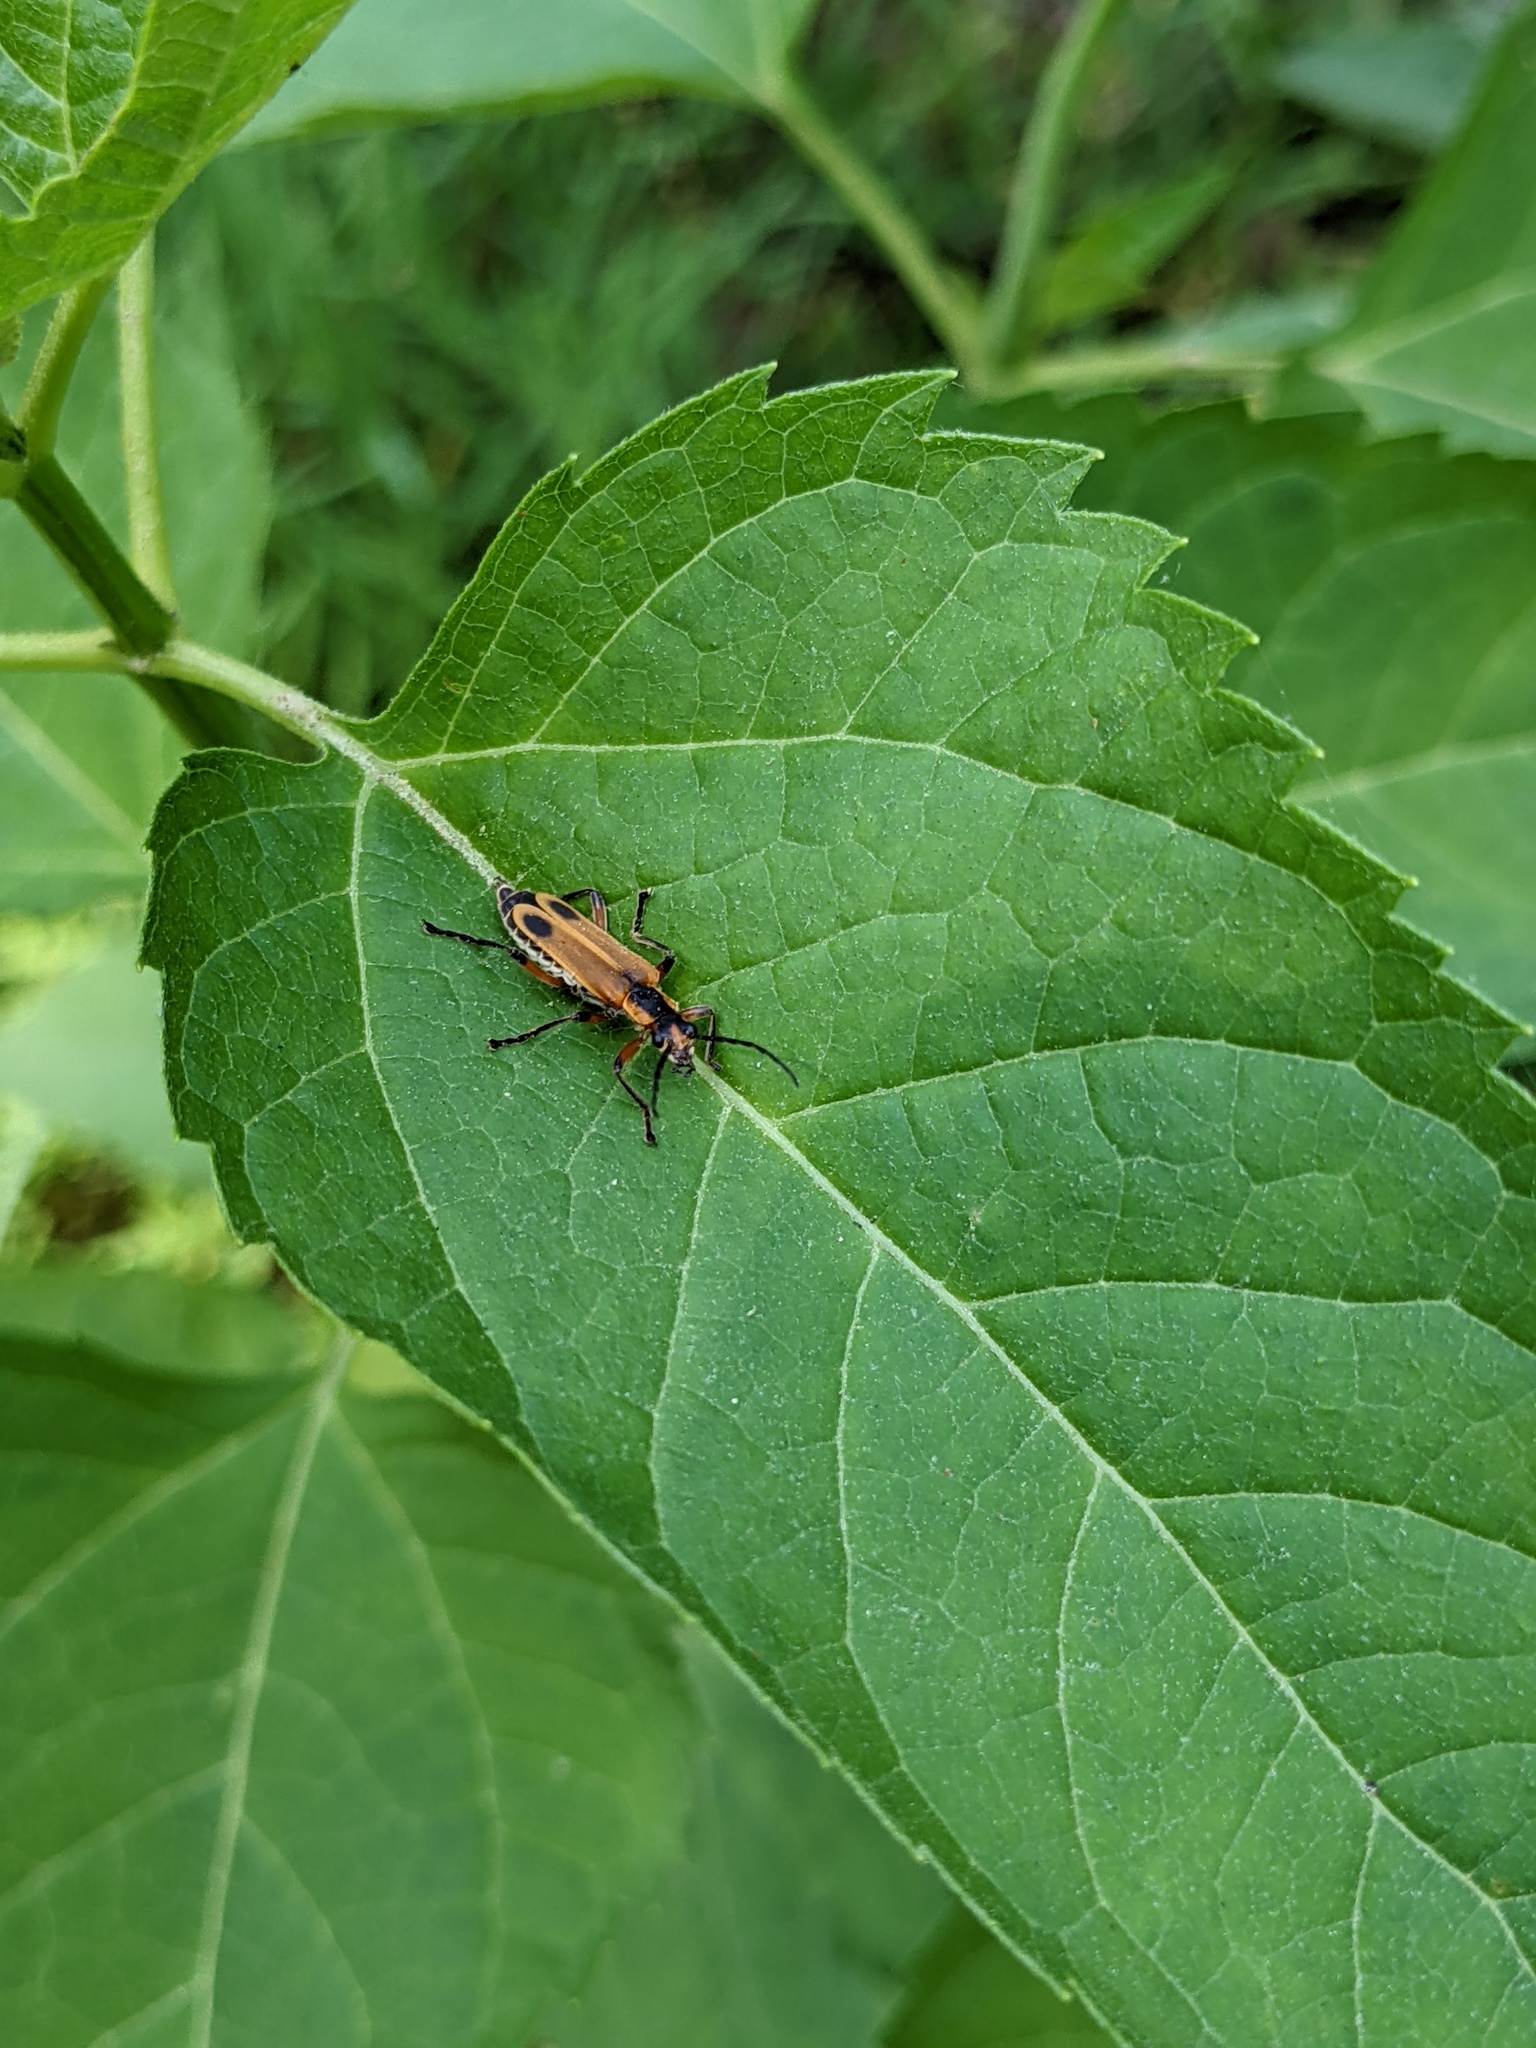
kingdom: Animalia
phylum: Arthropoda
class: Insecta
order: Coleoptera
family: Cantharidae
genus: Chauliognathus
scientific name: Chauliognathus marginatus
